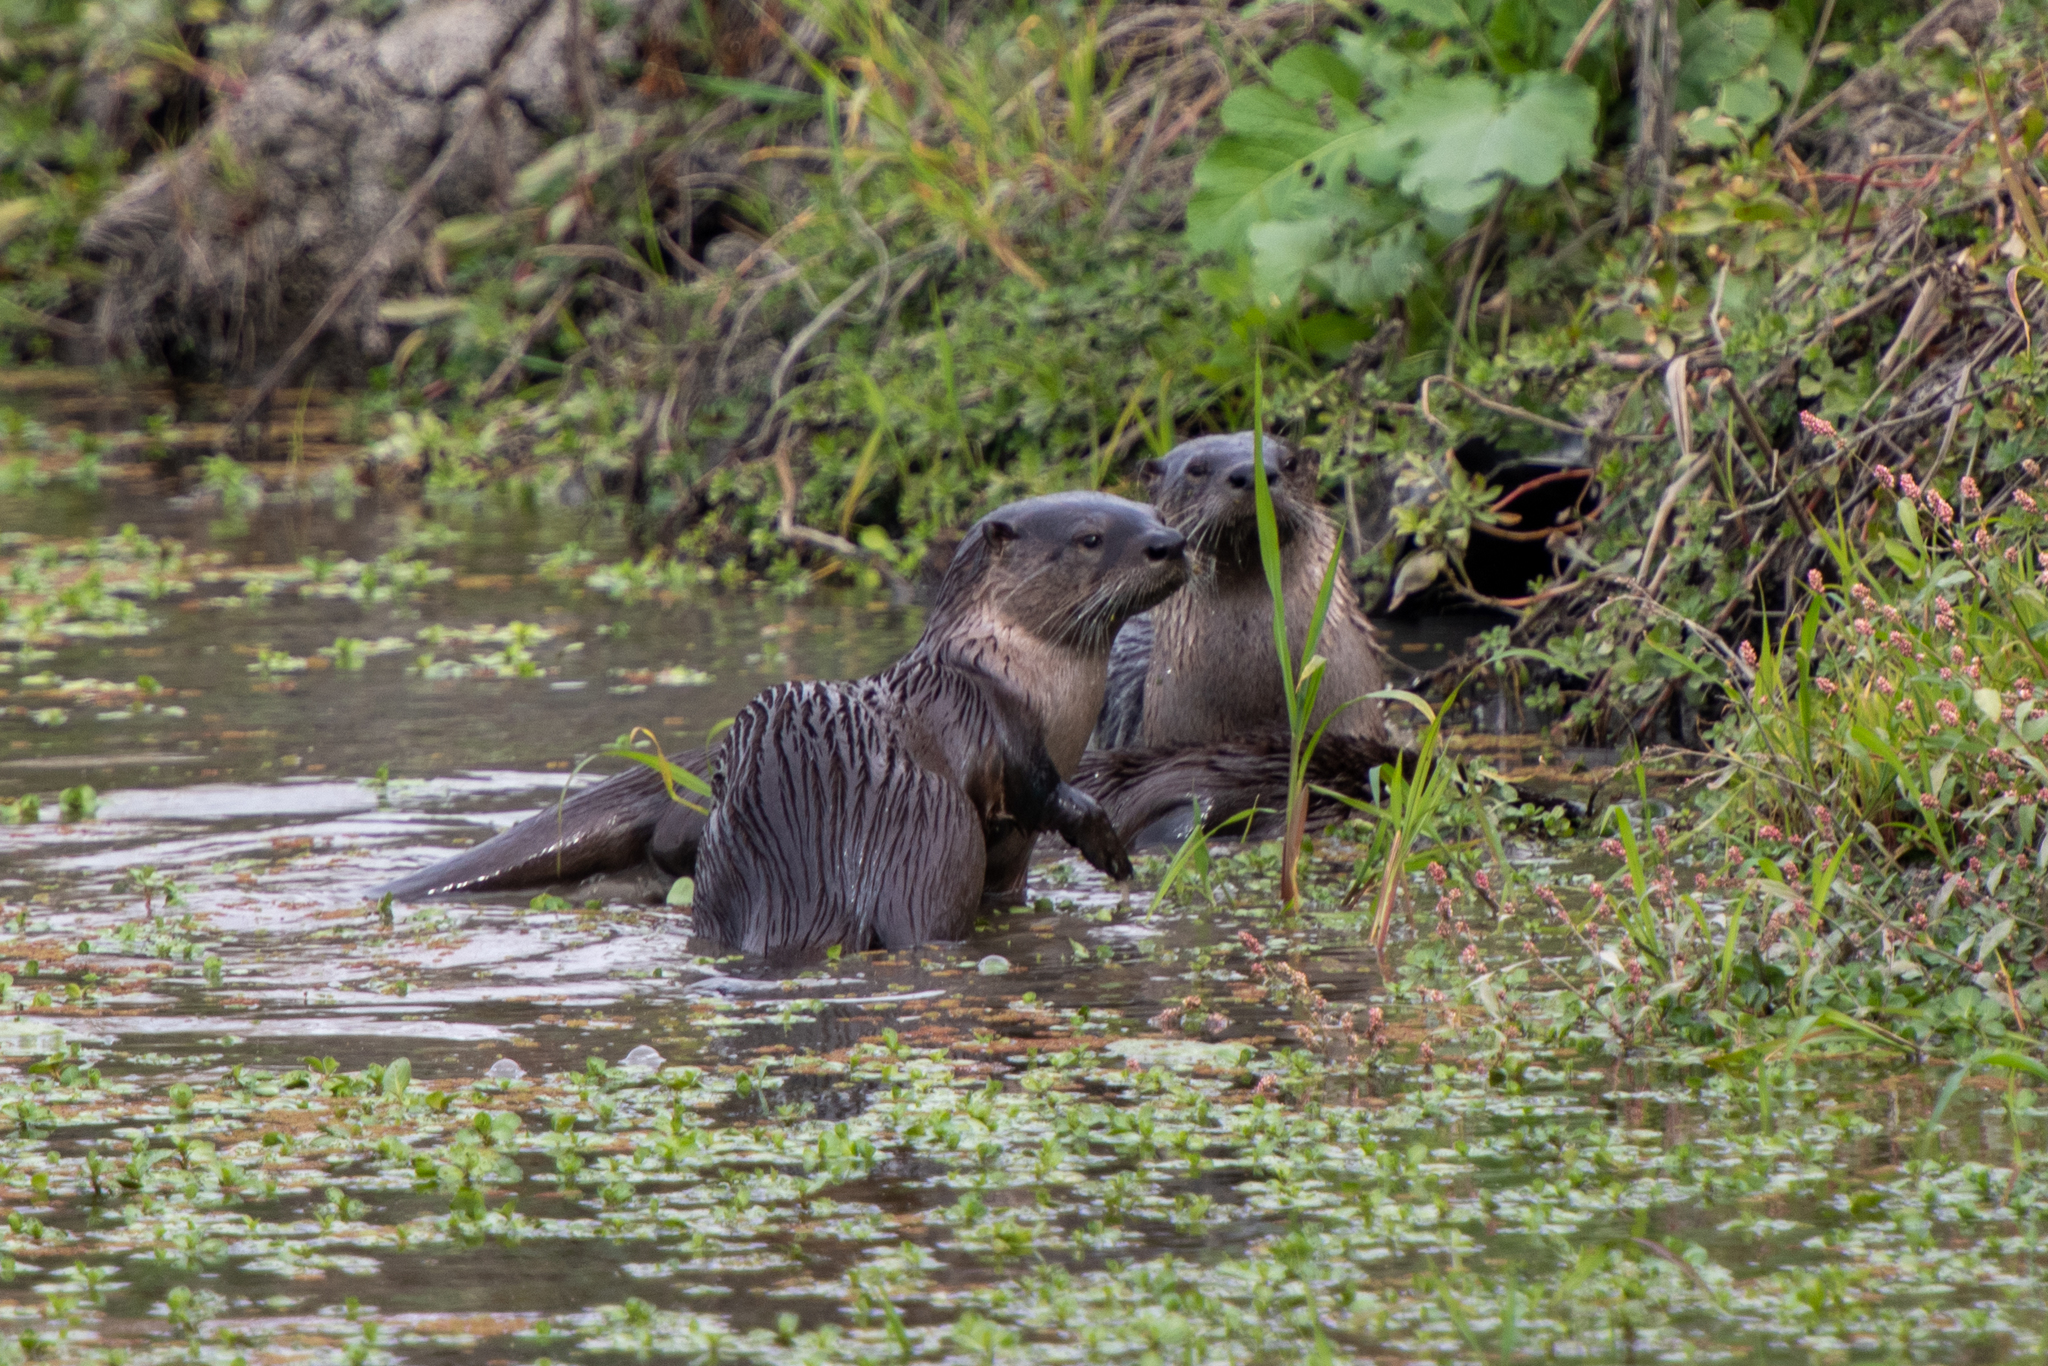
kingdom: Animalia
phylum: Chordata
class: Mammalia
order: Carnivora
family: Mustelidae
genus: Lontra
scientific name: Lontra canadensis
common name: North american river otter
